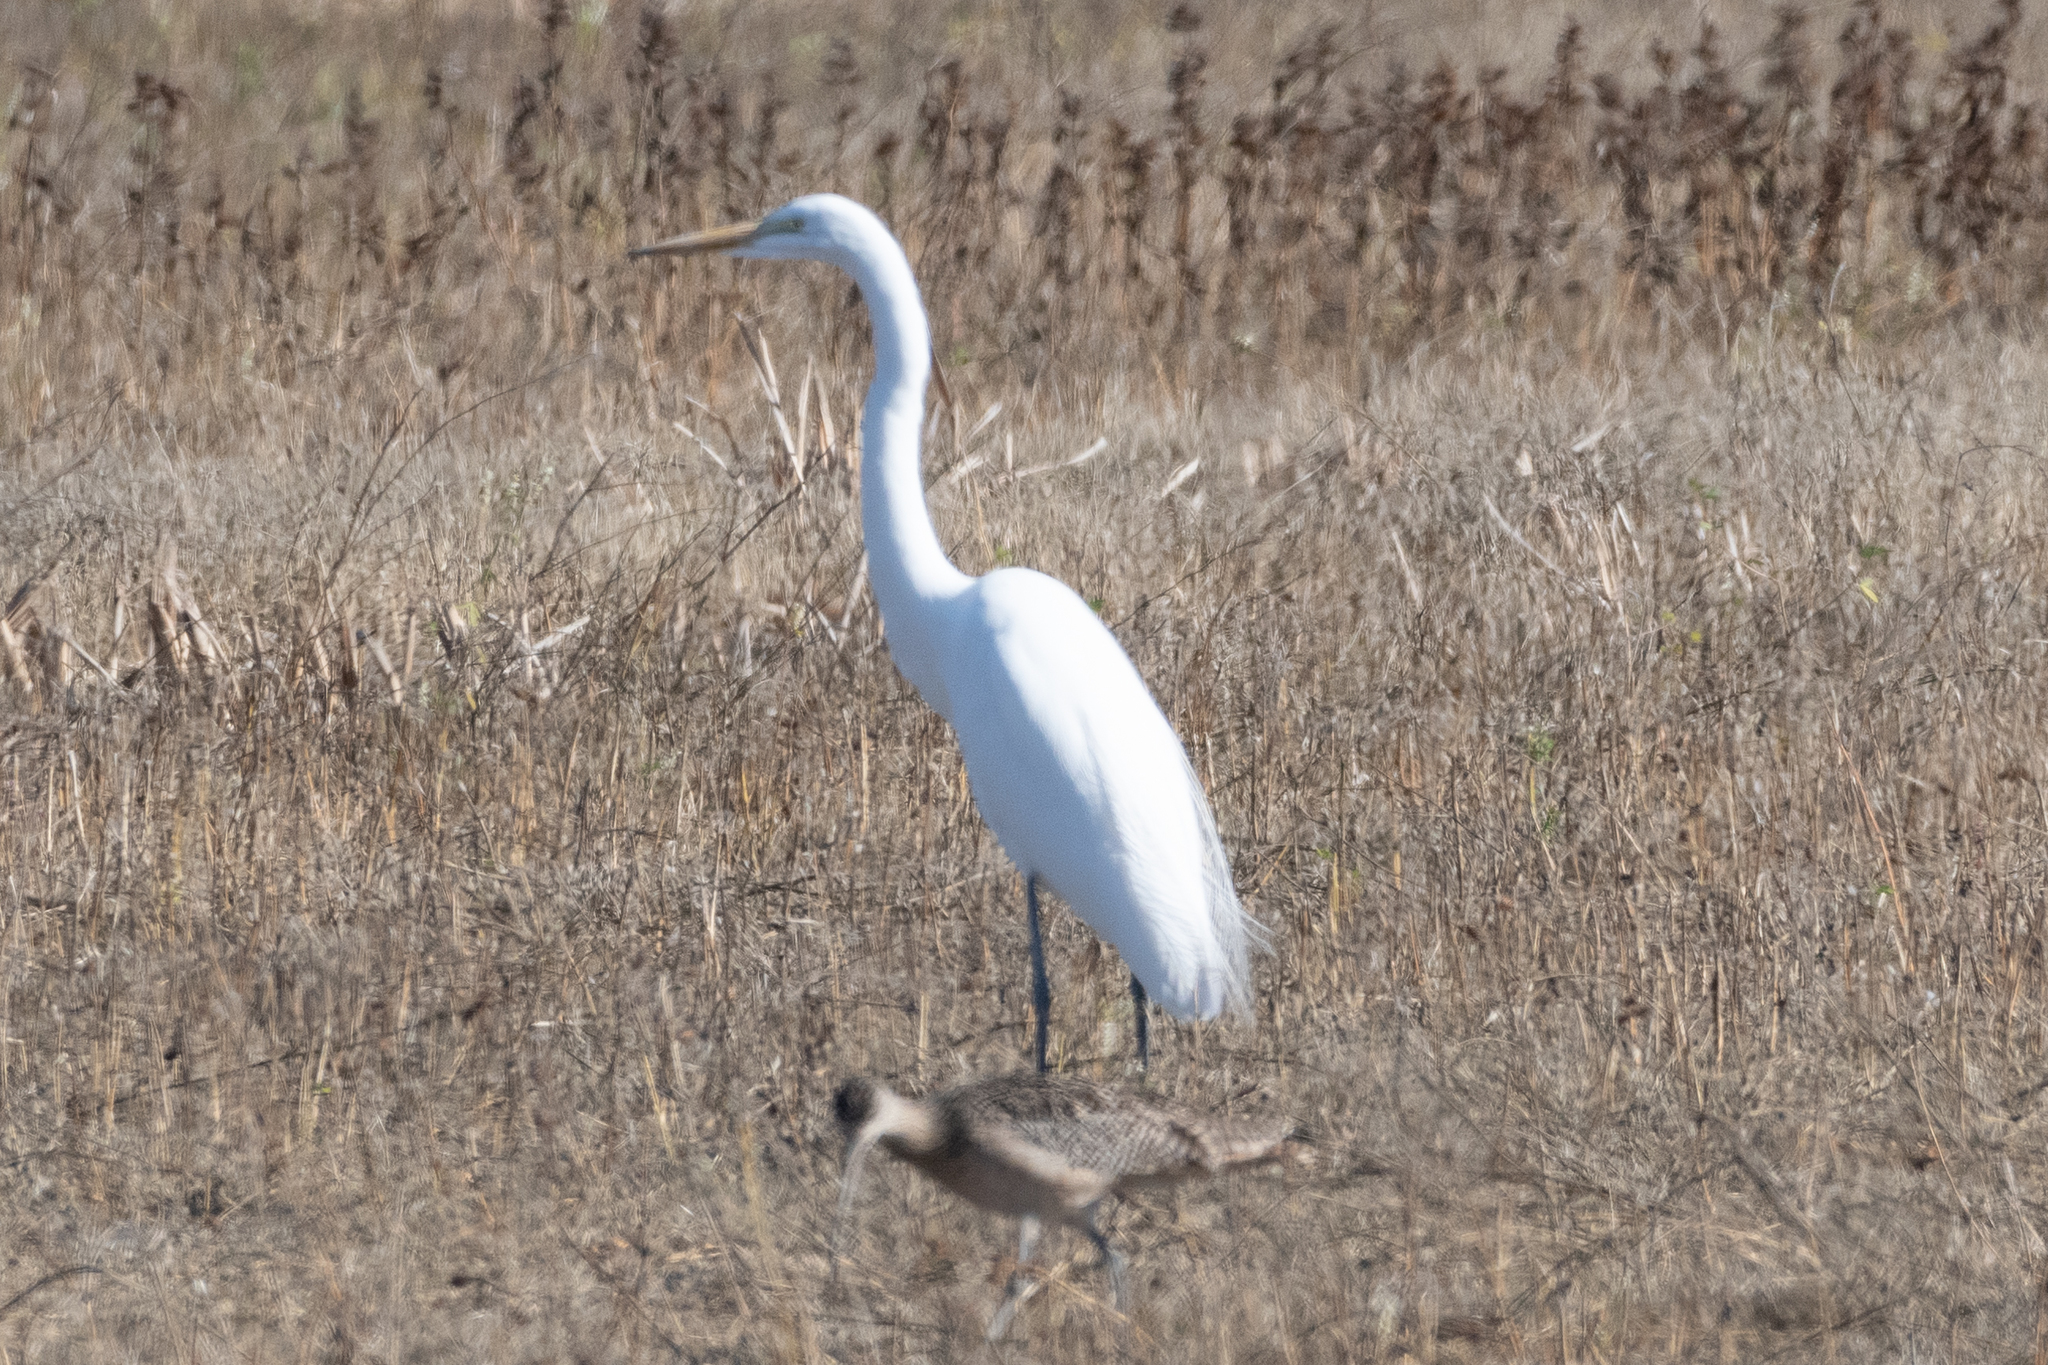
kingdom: Animalia
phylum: Chordata
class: Aves
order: Pelecaniformes
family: Ardeidae
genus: Ardea
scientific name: Ardea alba
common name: Great egret
